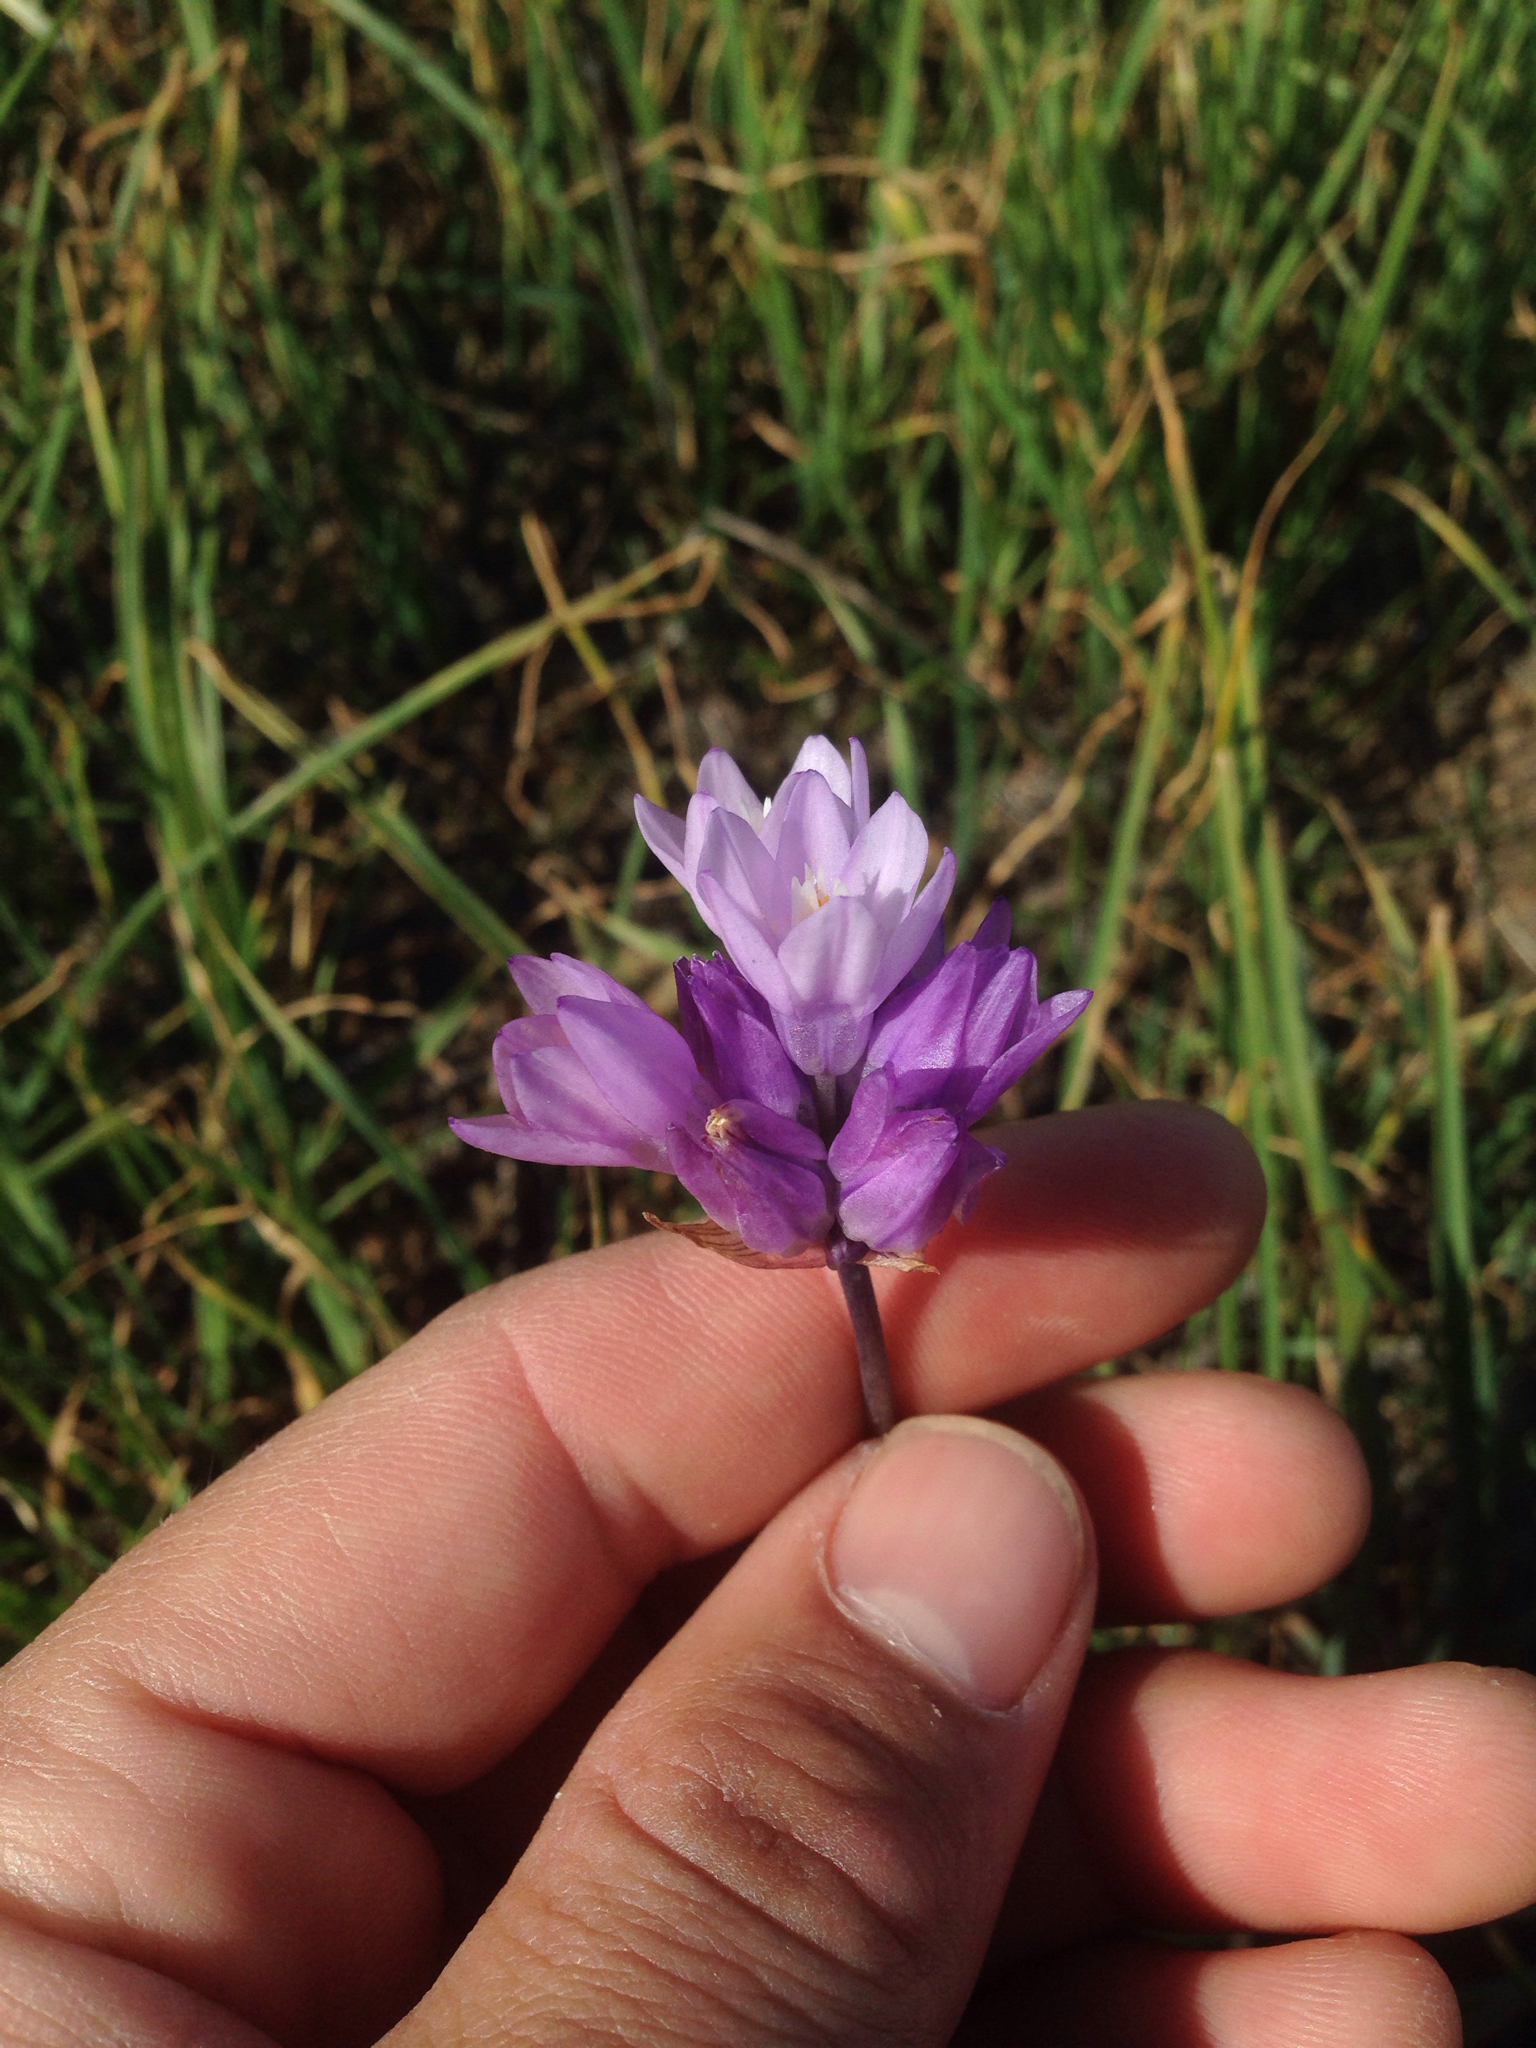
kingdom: Plantae
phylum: Tracheophyta
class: Liliopsida
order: Asparagales
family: Asparagaceae
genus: Dipterostemon
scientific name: Dipterostemon capitatus
